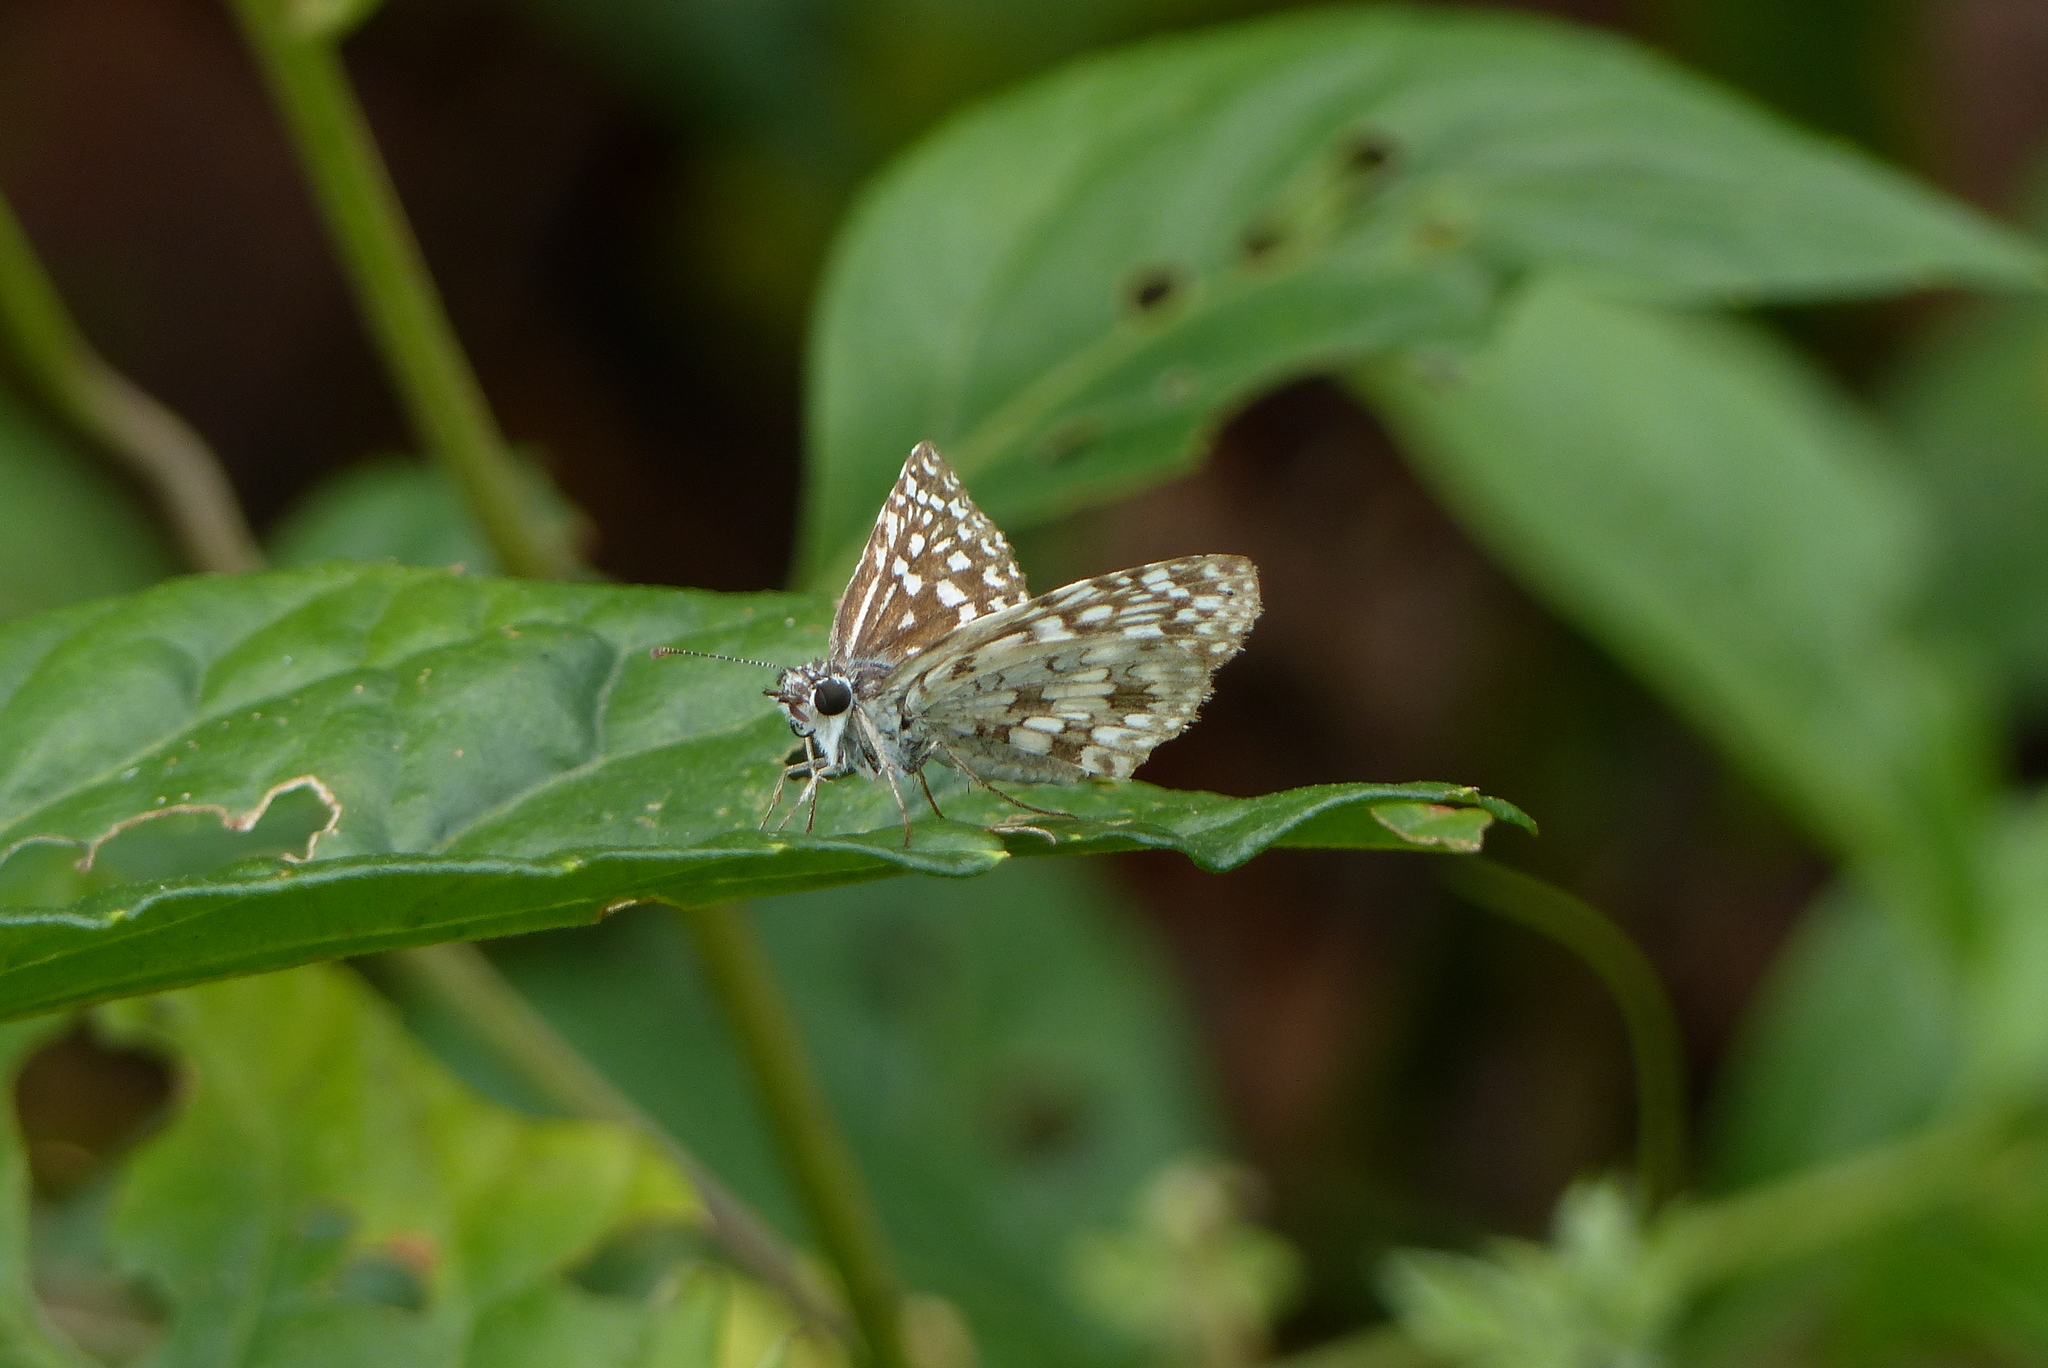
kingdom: Animalia
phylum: Arthropoda
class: Insecta
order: Lepidoptera
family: Hesperiidae
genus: Pyrgus
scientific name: Pyrgus oileus
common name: Tropical checkered-skipper
